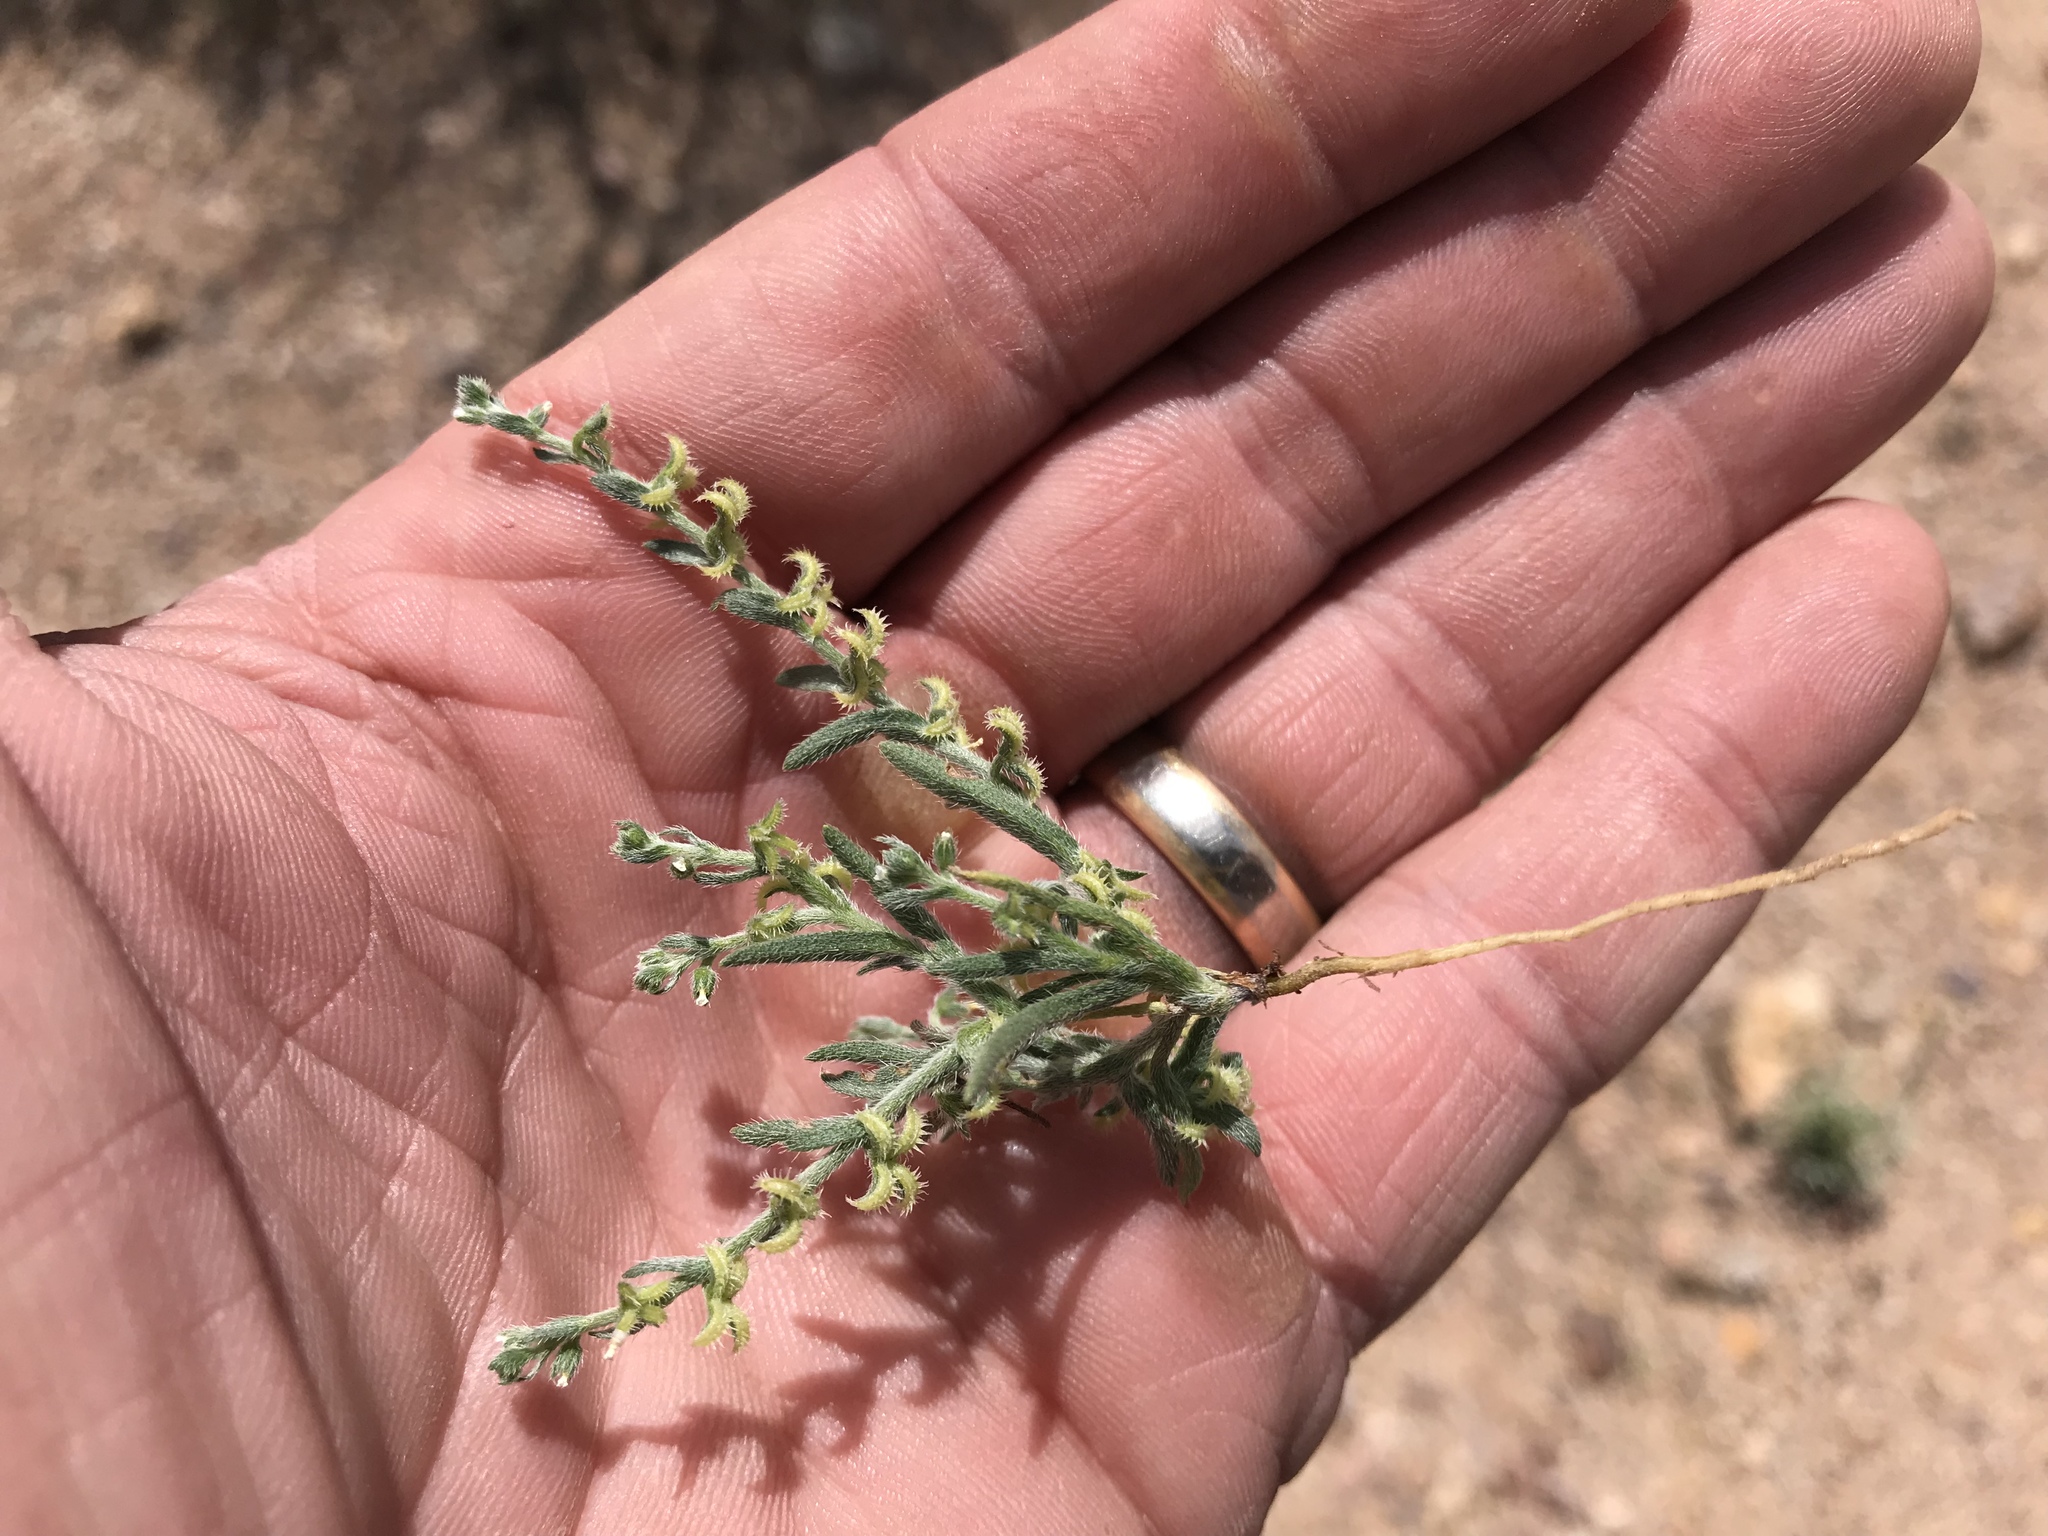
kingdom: Plantae
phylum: Tracheophyta
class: Magnoliopsida
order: Boraginales
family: Boraginaceae
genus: Pectocarya
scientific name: Pectocarya recurvata
